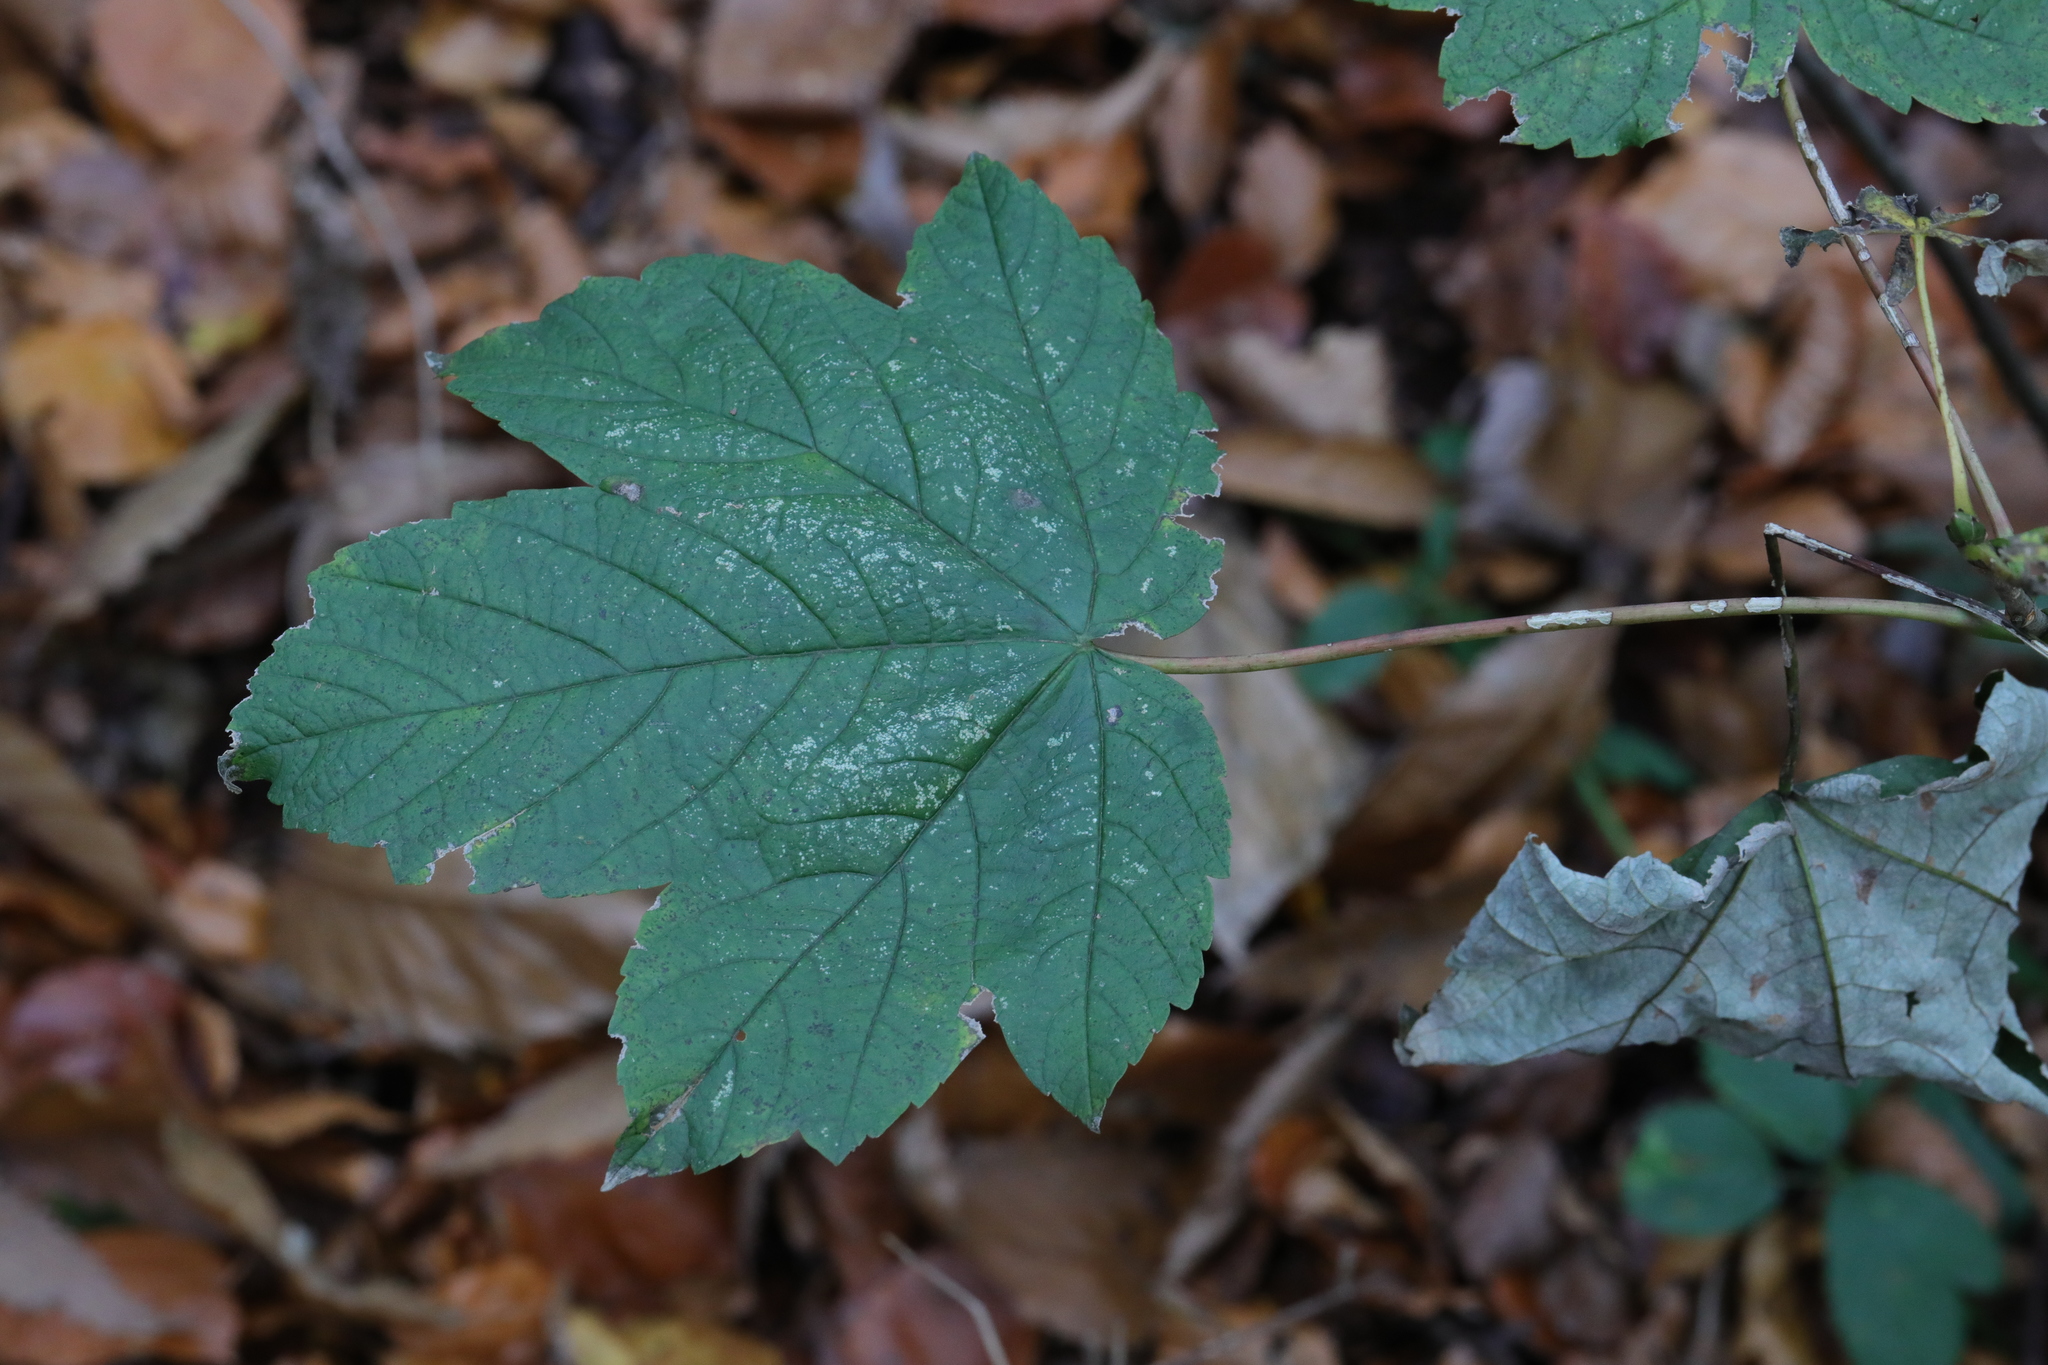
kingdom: Plantae
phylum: Tracheophyta
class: Magnoliopsida
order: Sapindales
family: Sapindaceae
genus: Acer
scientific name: Acer pseudoplatanus
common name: Sycamore
